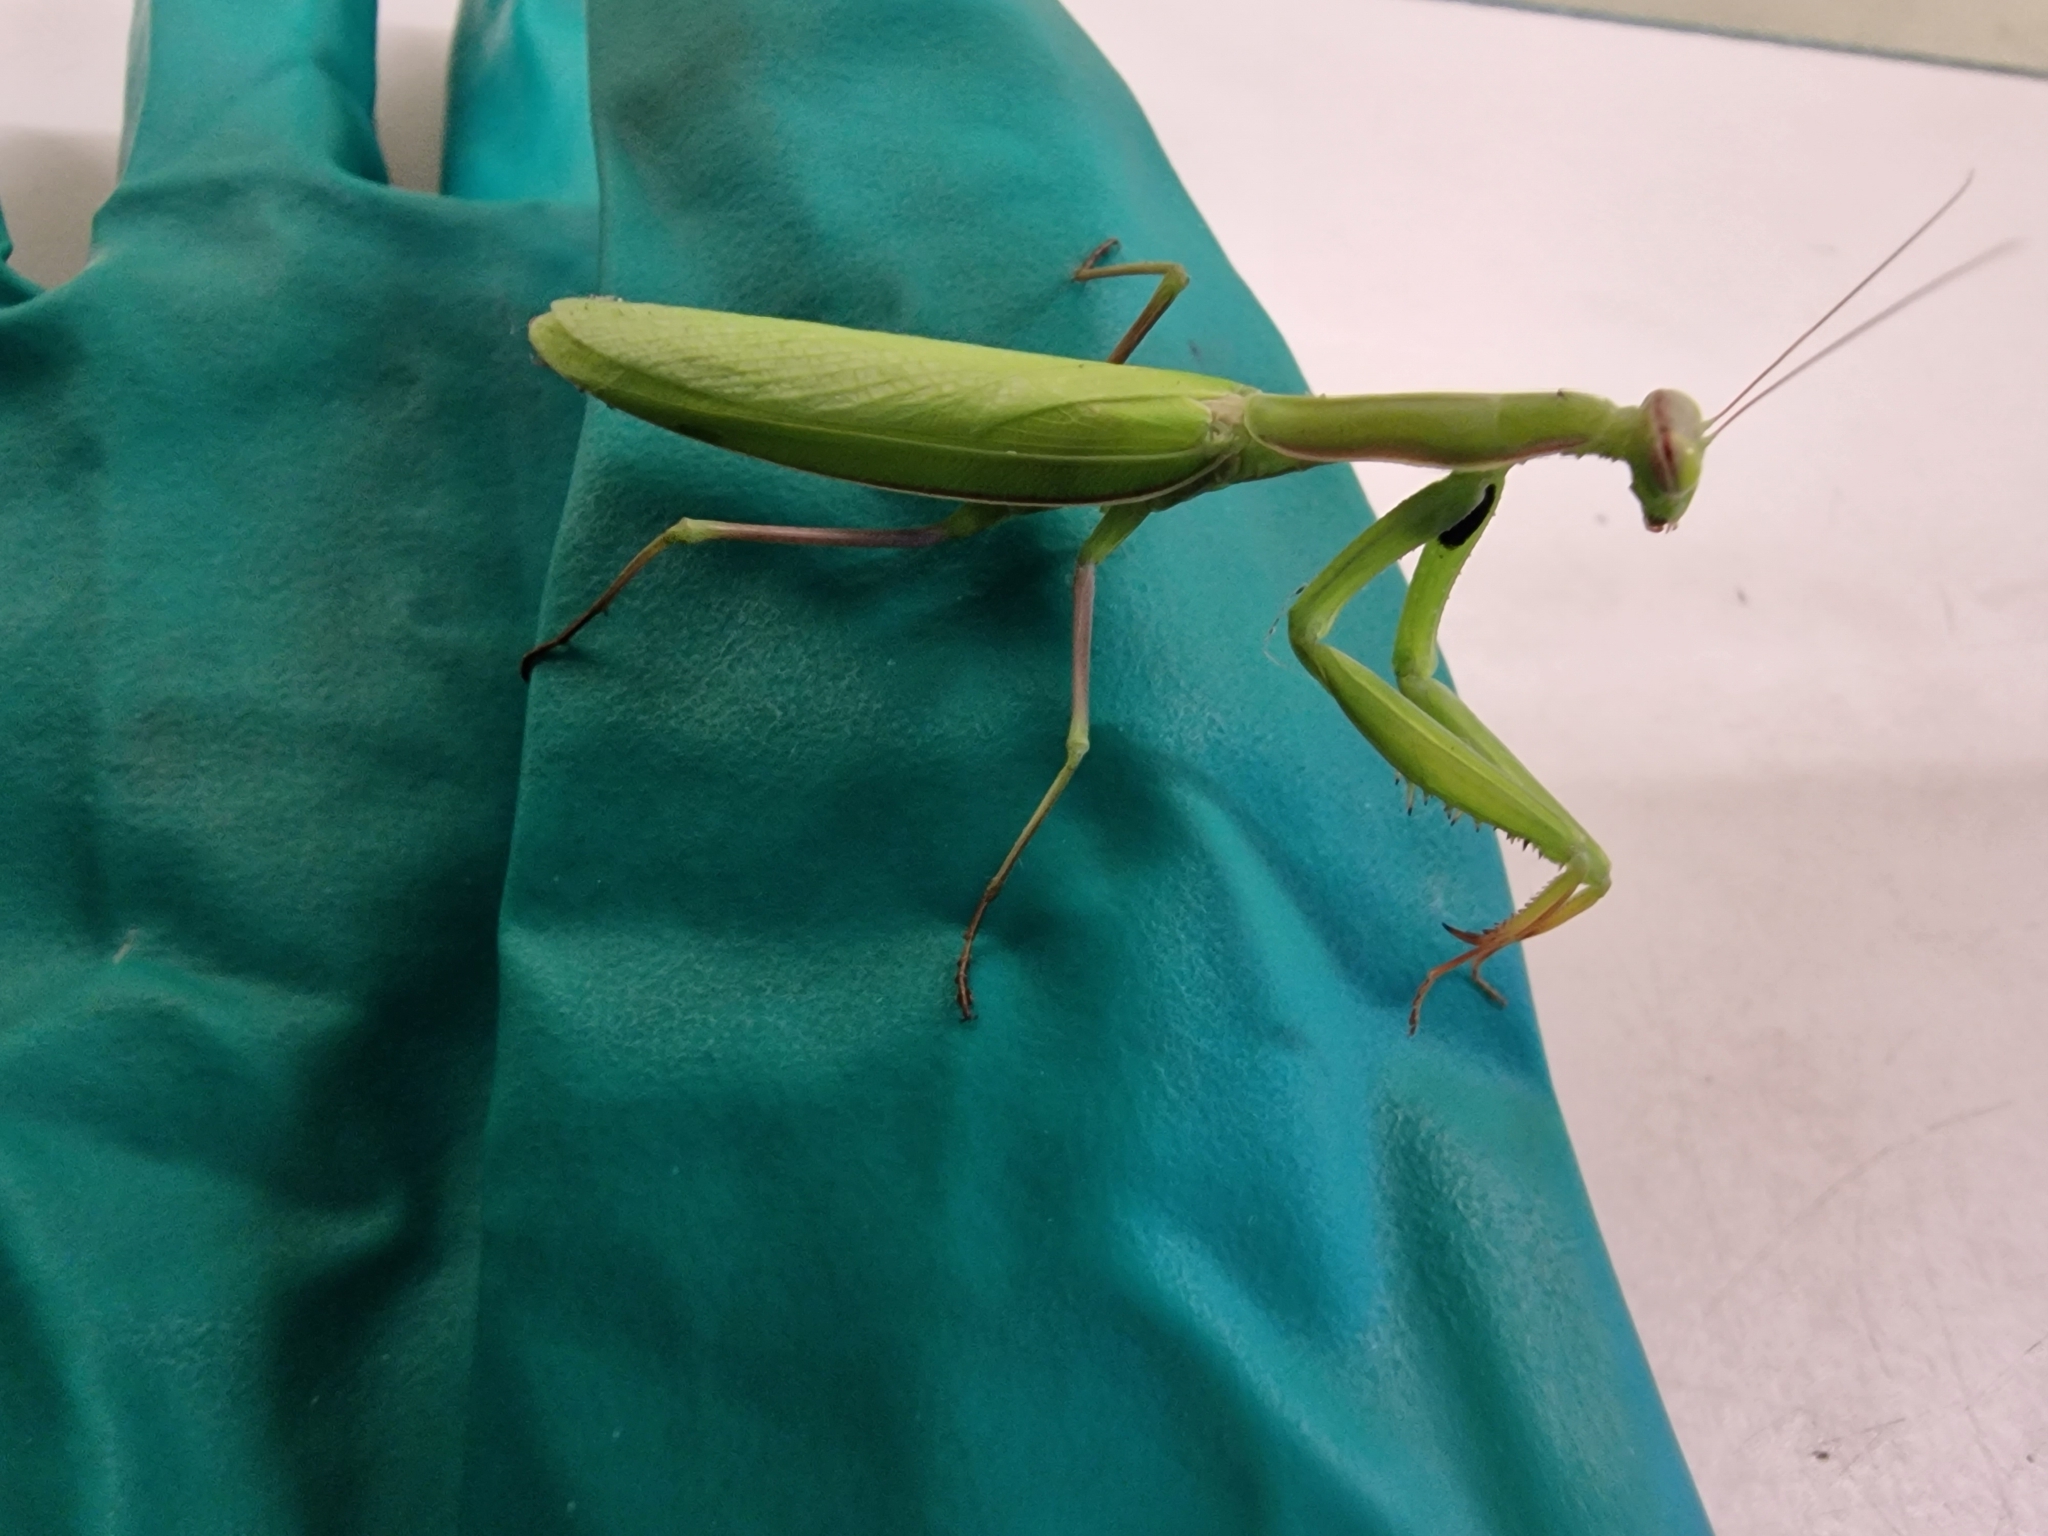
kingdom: Animalia
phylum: Arthropoda
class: Insecta
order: Mantodea
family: Mantidae
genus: Mantis
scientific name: Mantis religiosa
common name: Praying mantis
